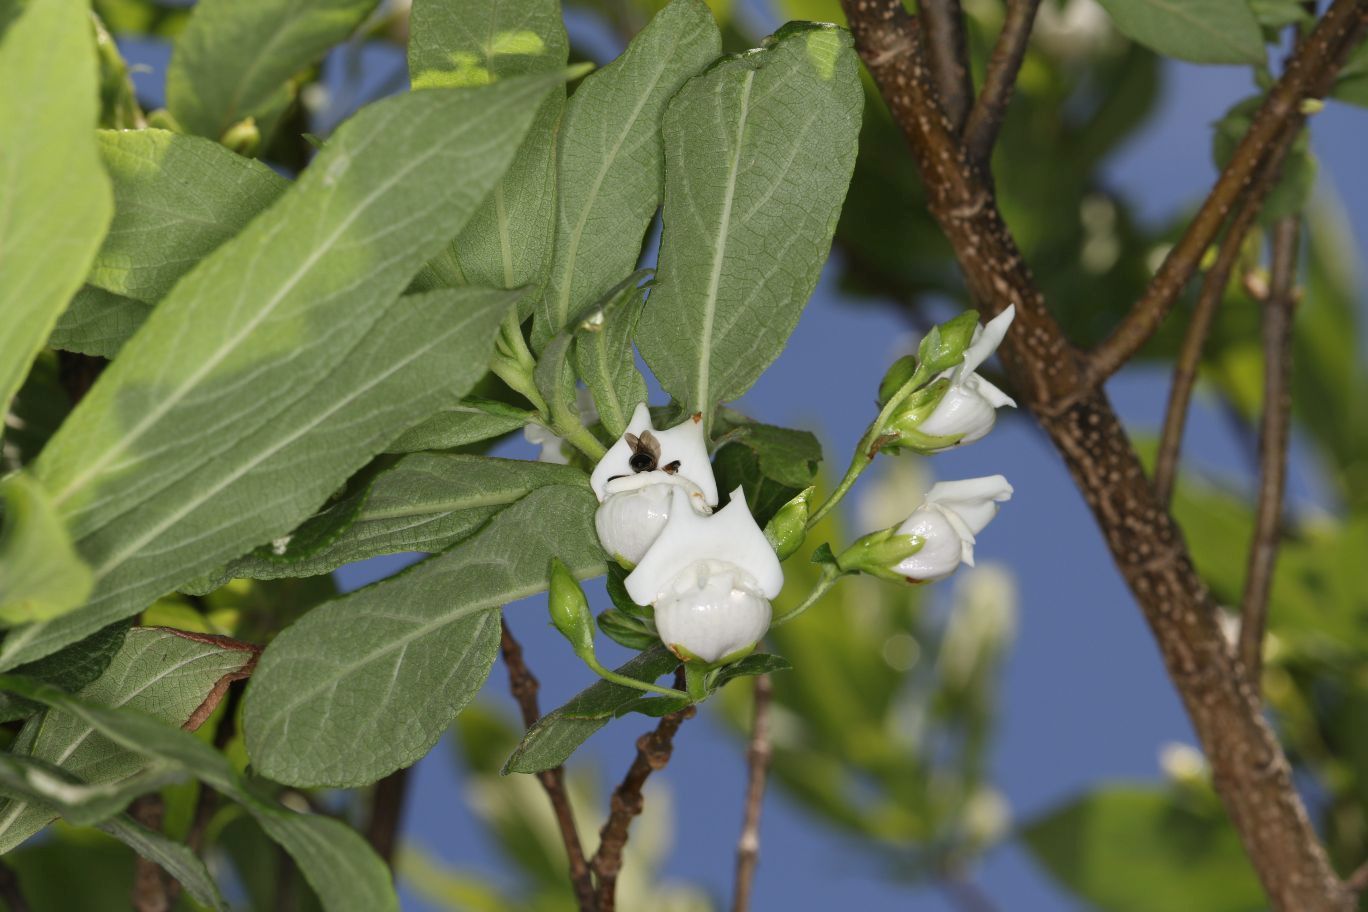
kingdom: Plantae
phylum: Tracheophyta
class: Magnoliopsida
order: Lamiales
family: Stilbaceae
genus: Bowkeria
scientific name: Bowkeria verticillata
